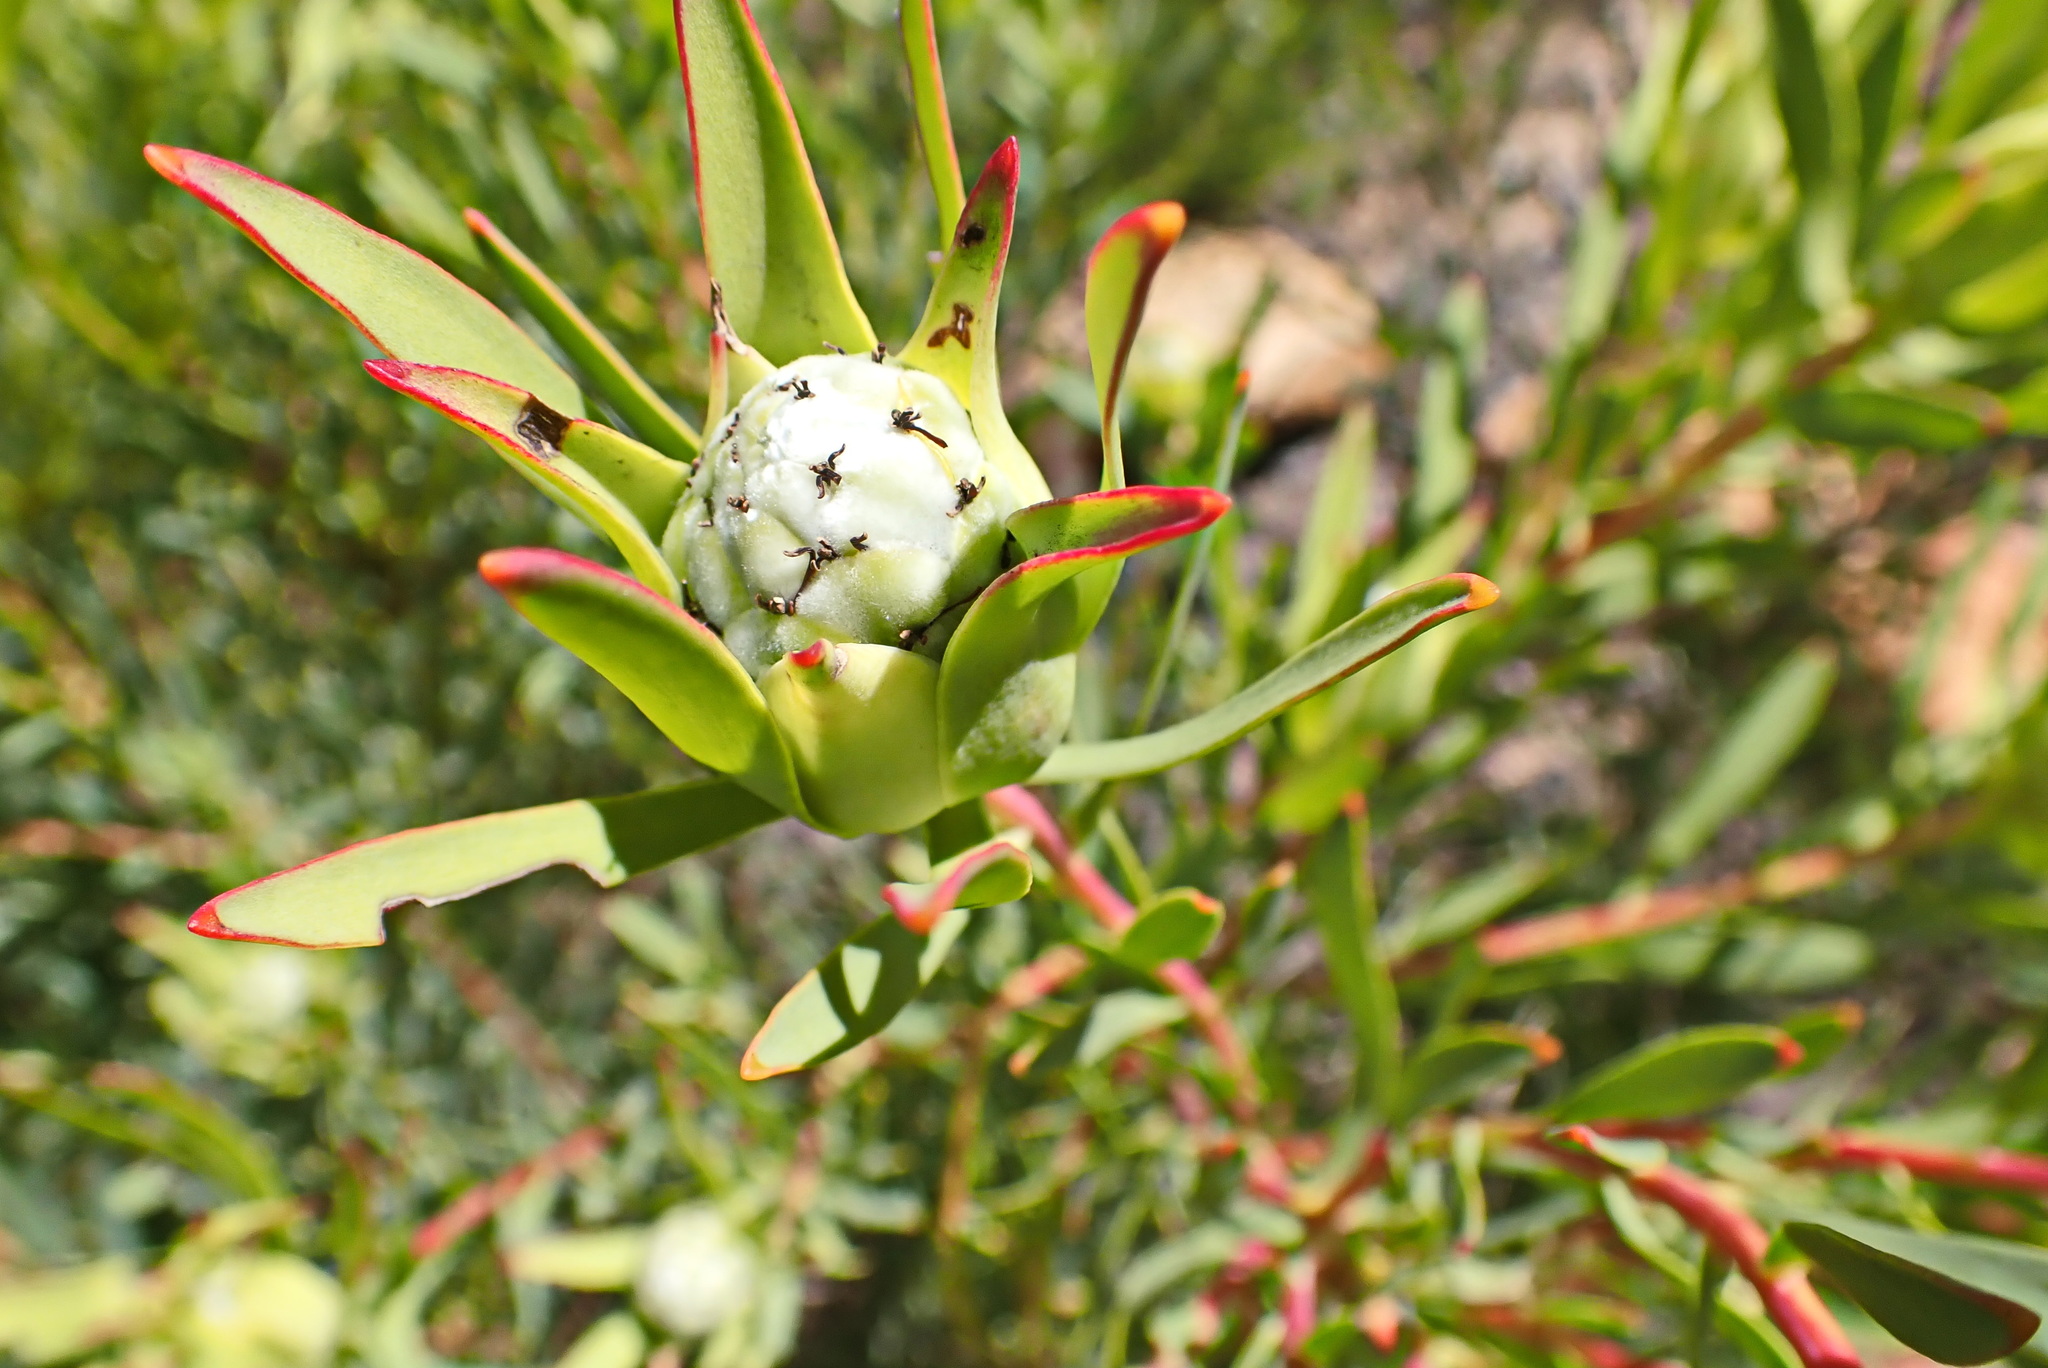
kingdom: Plantae
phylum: Tracheophyta
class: Magnoliopsida
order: Proteales
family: Proteaceae
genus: Leucadendron
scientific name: Leucadendron salignum
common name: Common sunshine conebush
